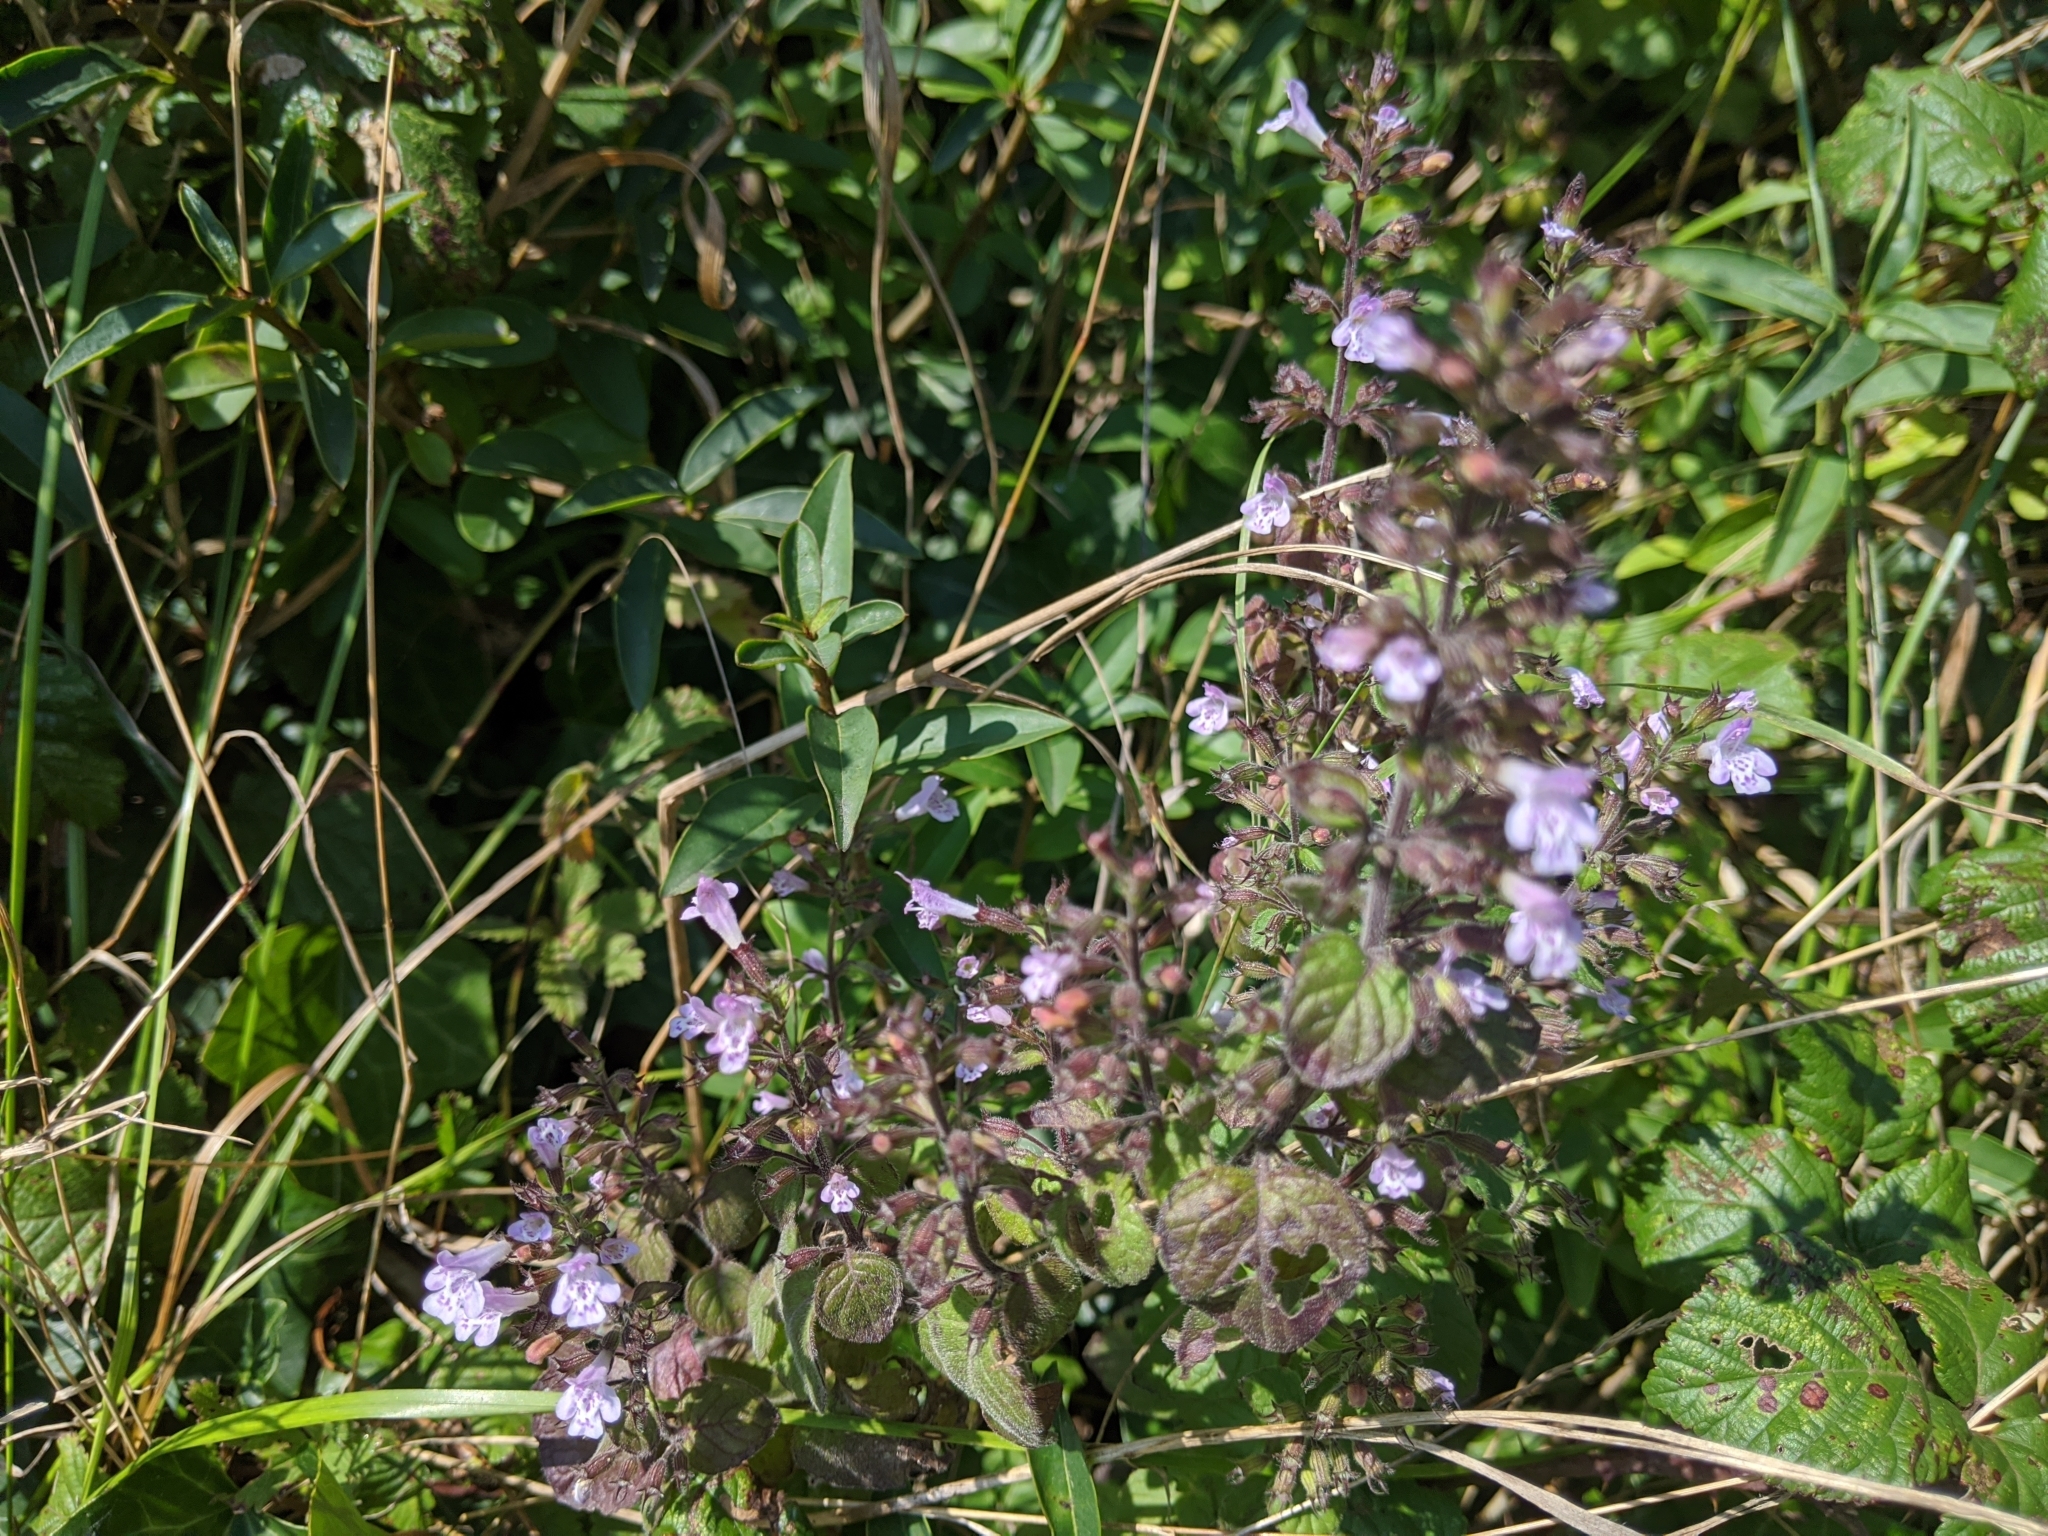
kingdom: Plantae
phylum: Tracheophyta
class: Magnoliopsida
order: Lamiales
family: Lamiaceae
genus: Clinopodium
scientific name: Clinopodium menthifolium
